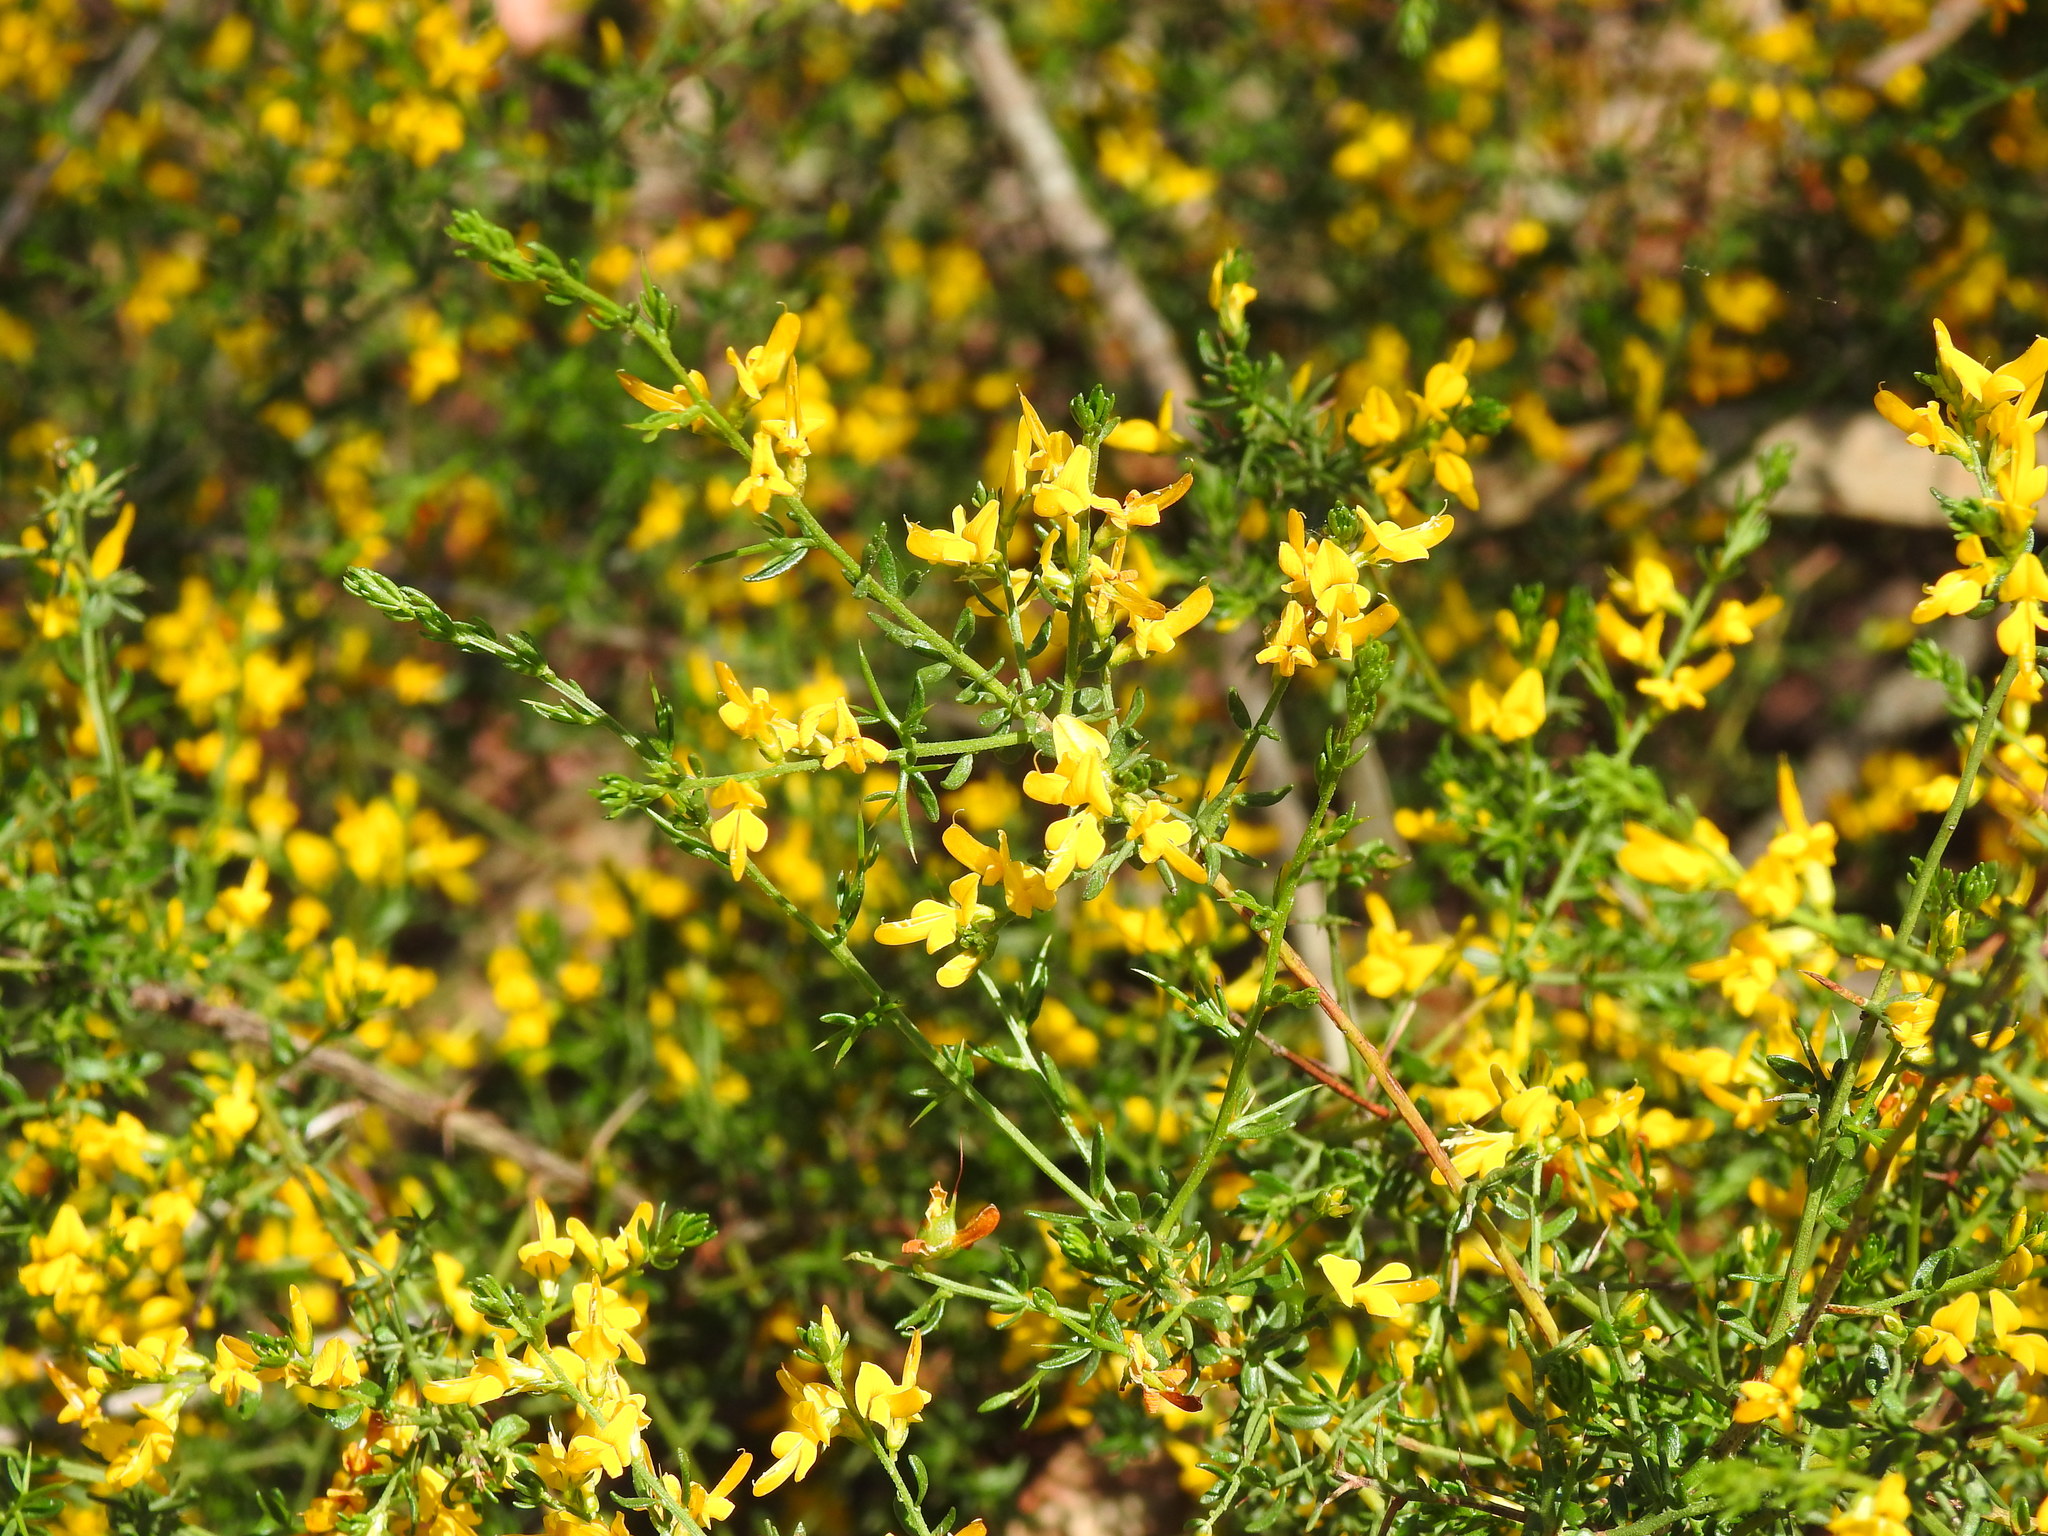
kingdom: Plantae
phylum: Tracheophyta
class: Magnoliopsida
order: Fabales
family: Fabaceae
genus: Genista
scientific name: Genista triacanthos
